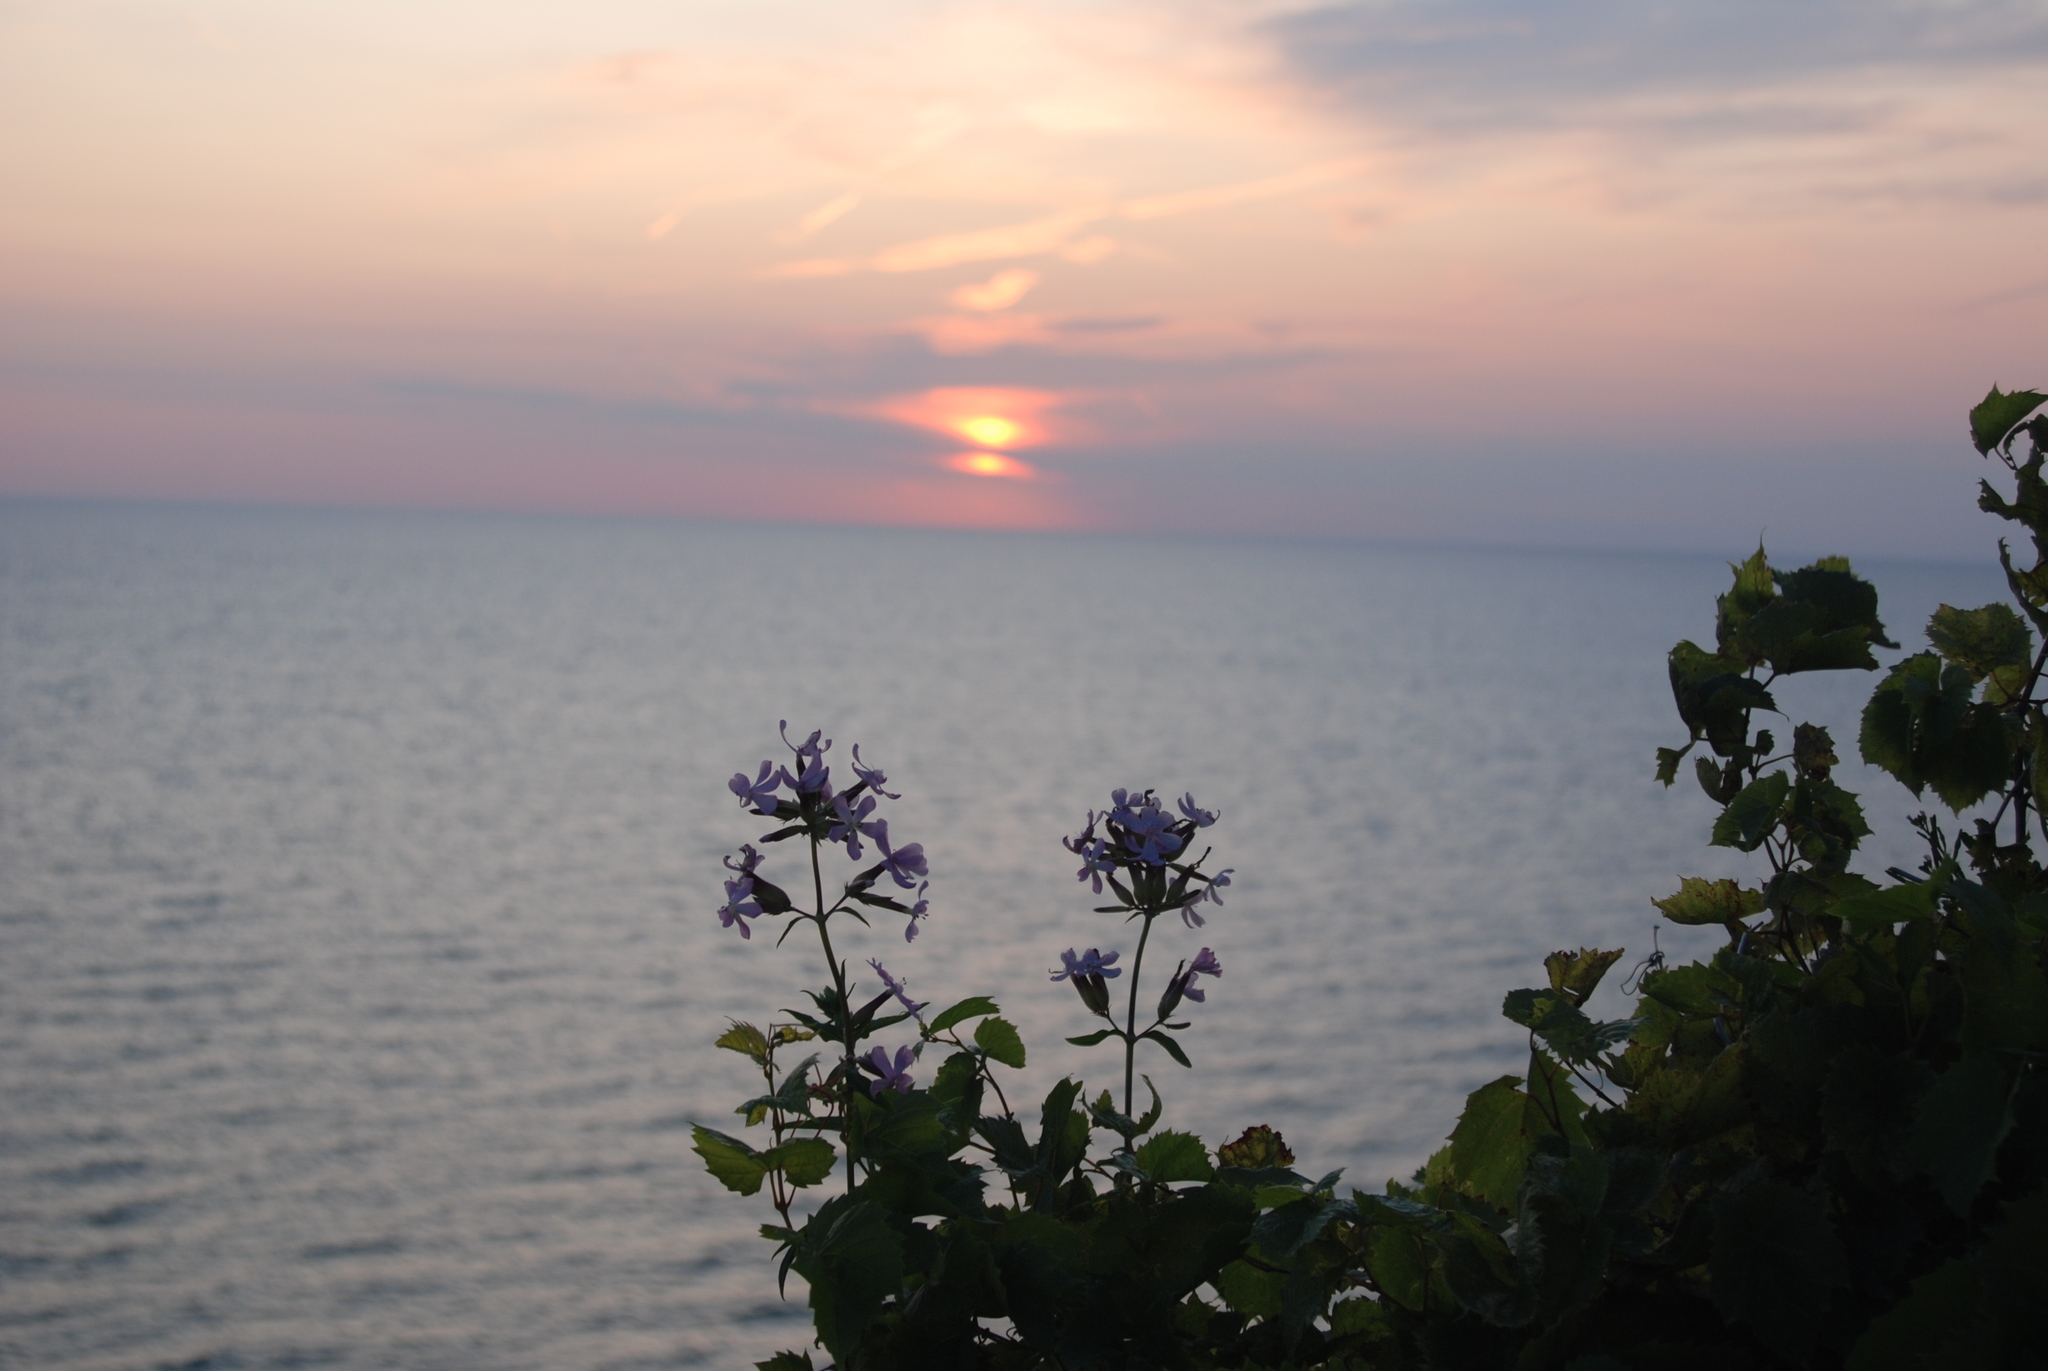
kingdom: Plantae
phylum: Tracheophyta
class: Magnoliopsida
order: Caryophyllales
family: Caryophyllaceae
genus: Saponaria
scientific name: Saponaria officinalis
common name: Soapwort
